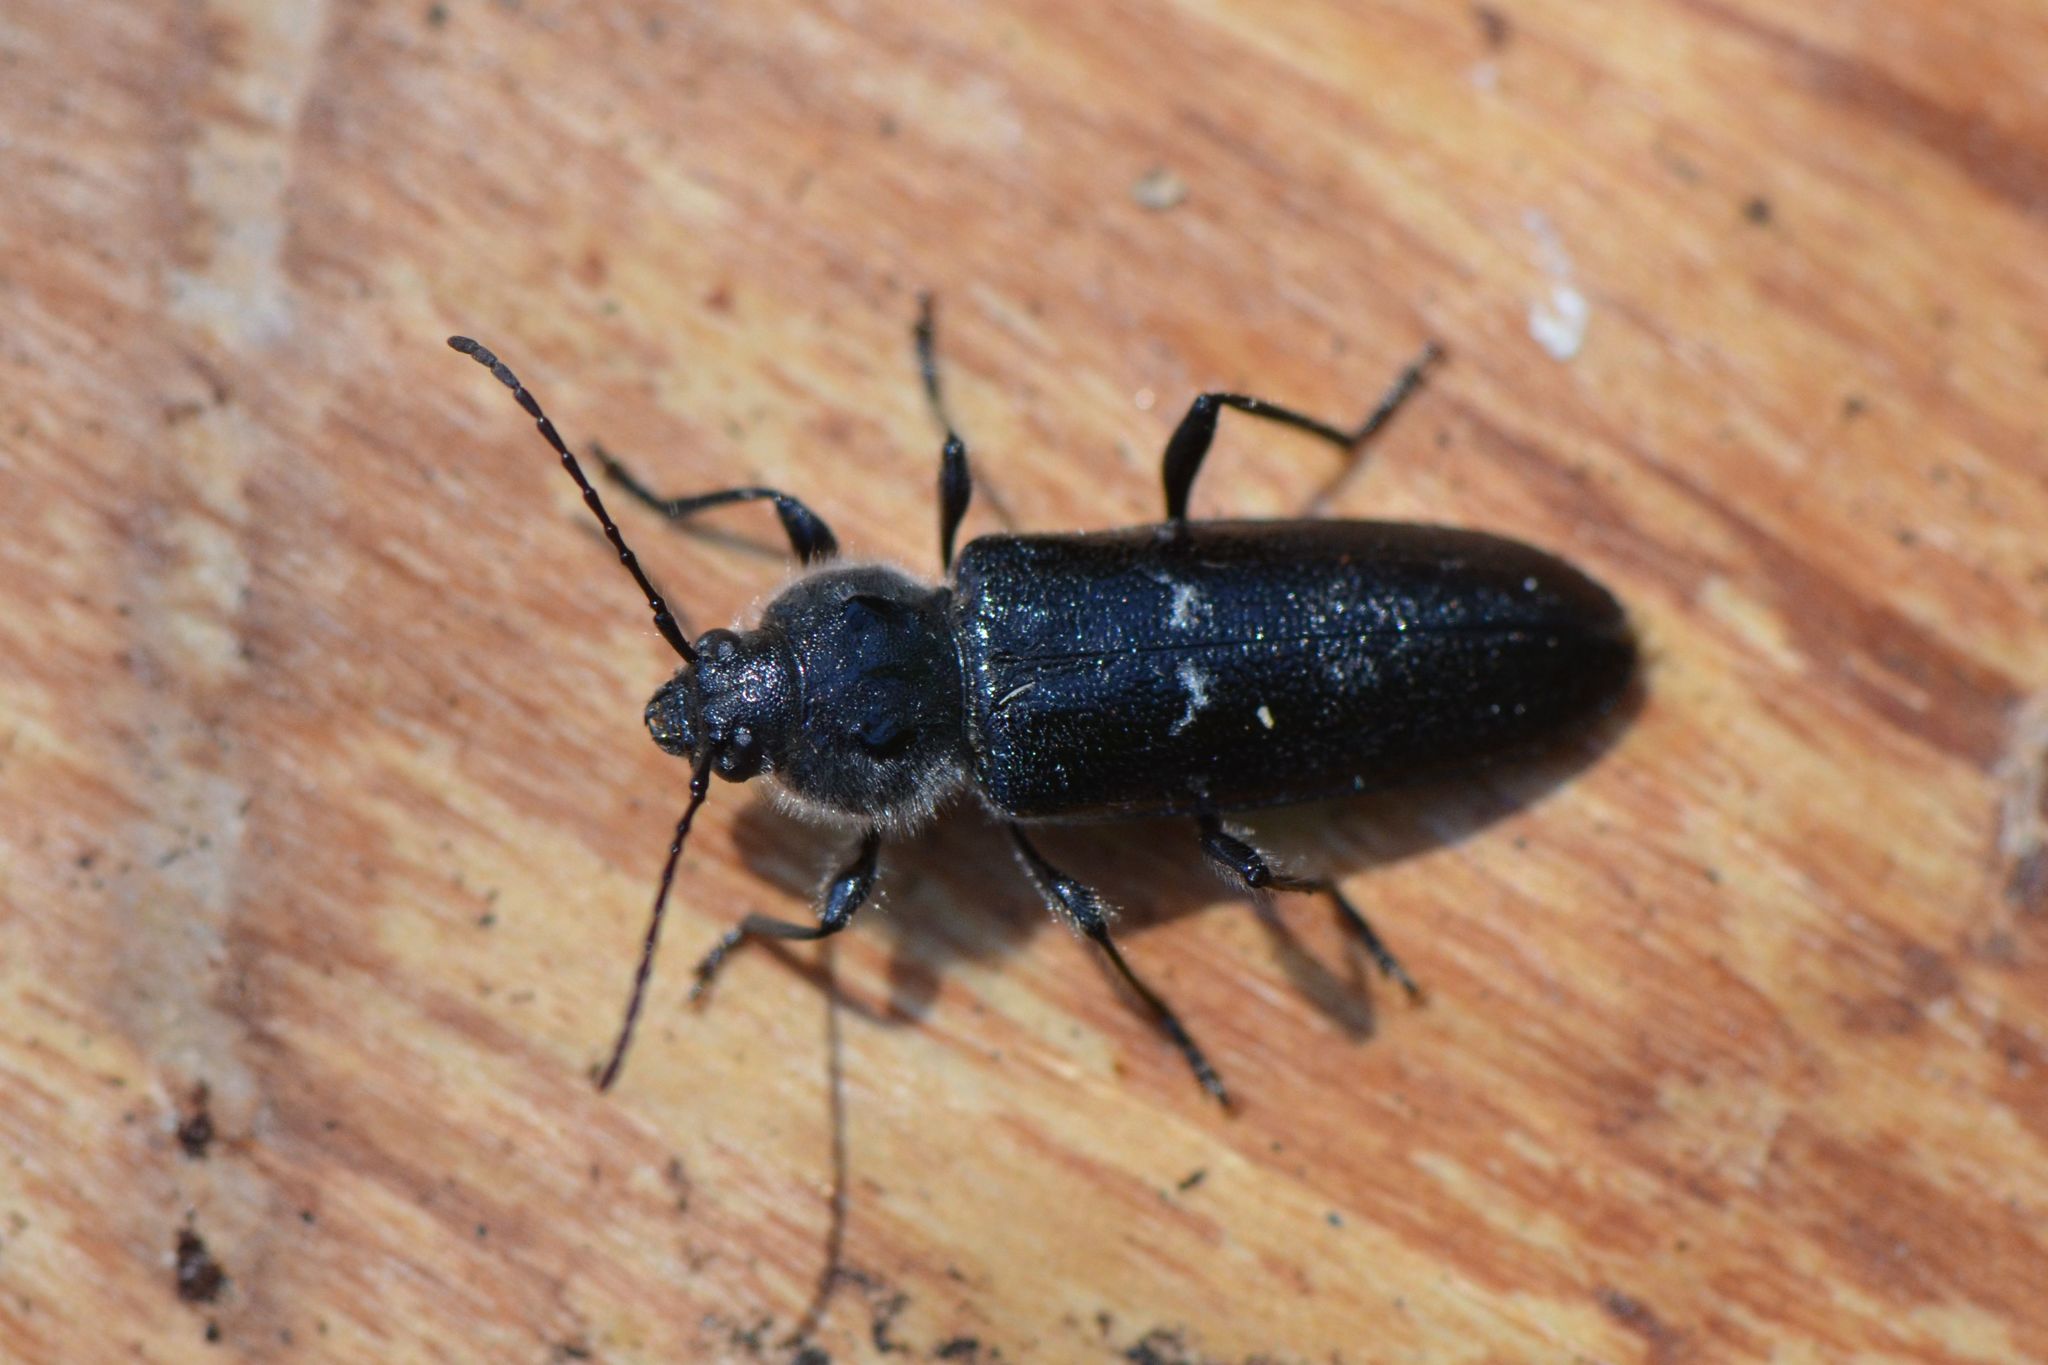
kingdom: Animalia
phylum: Arthropoda
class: Insecta
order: Coleoptera
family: Cerambycidae
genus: Hylotrupes
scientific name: Hylotrupes bajulus
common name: Old house borer
